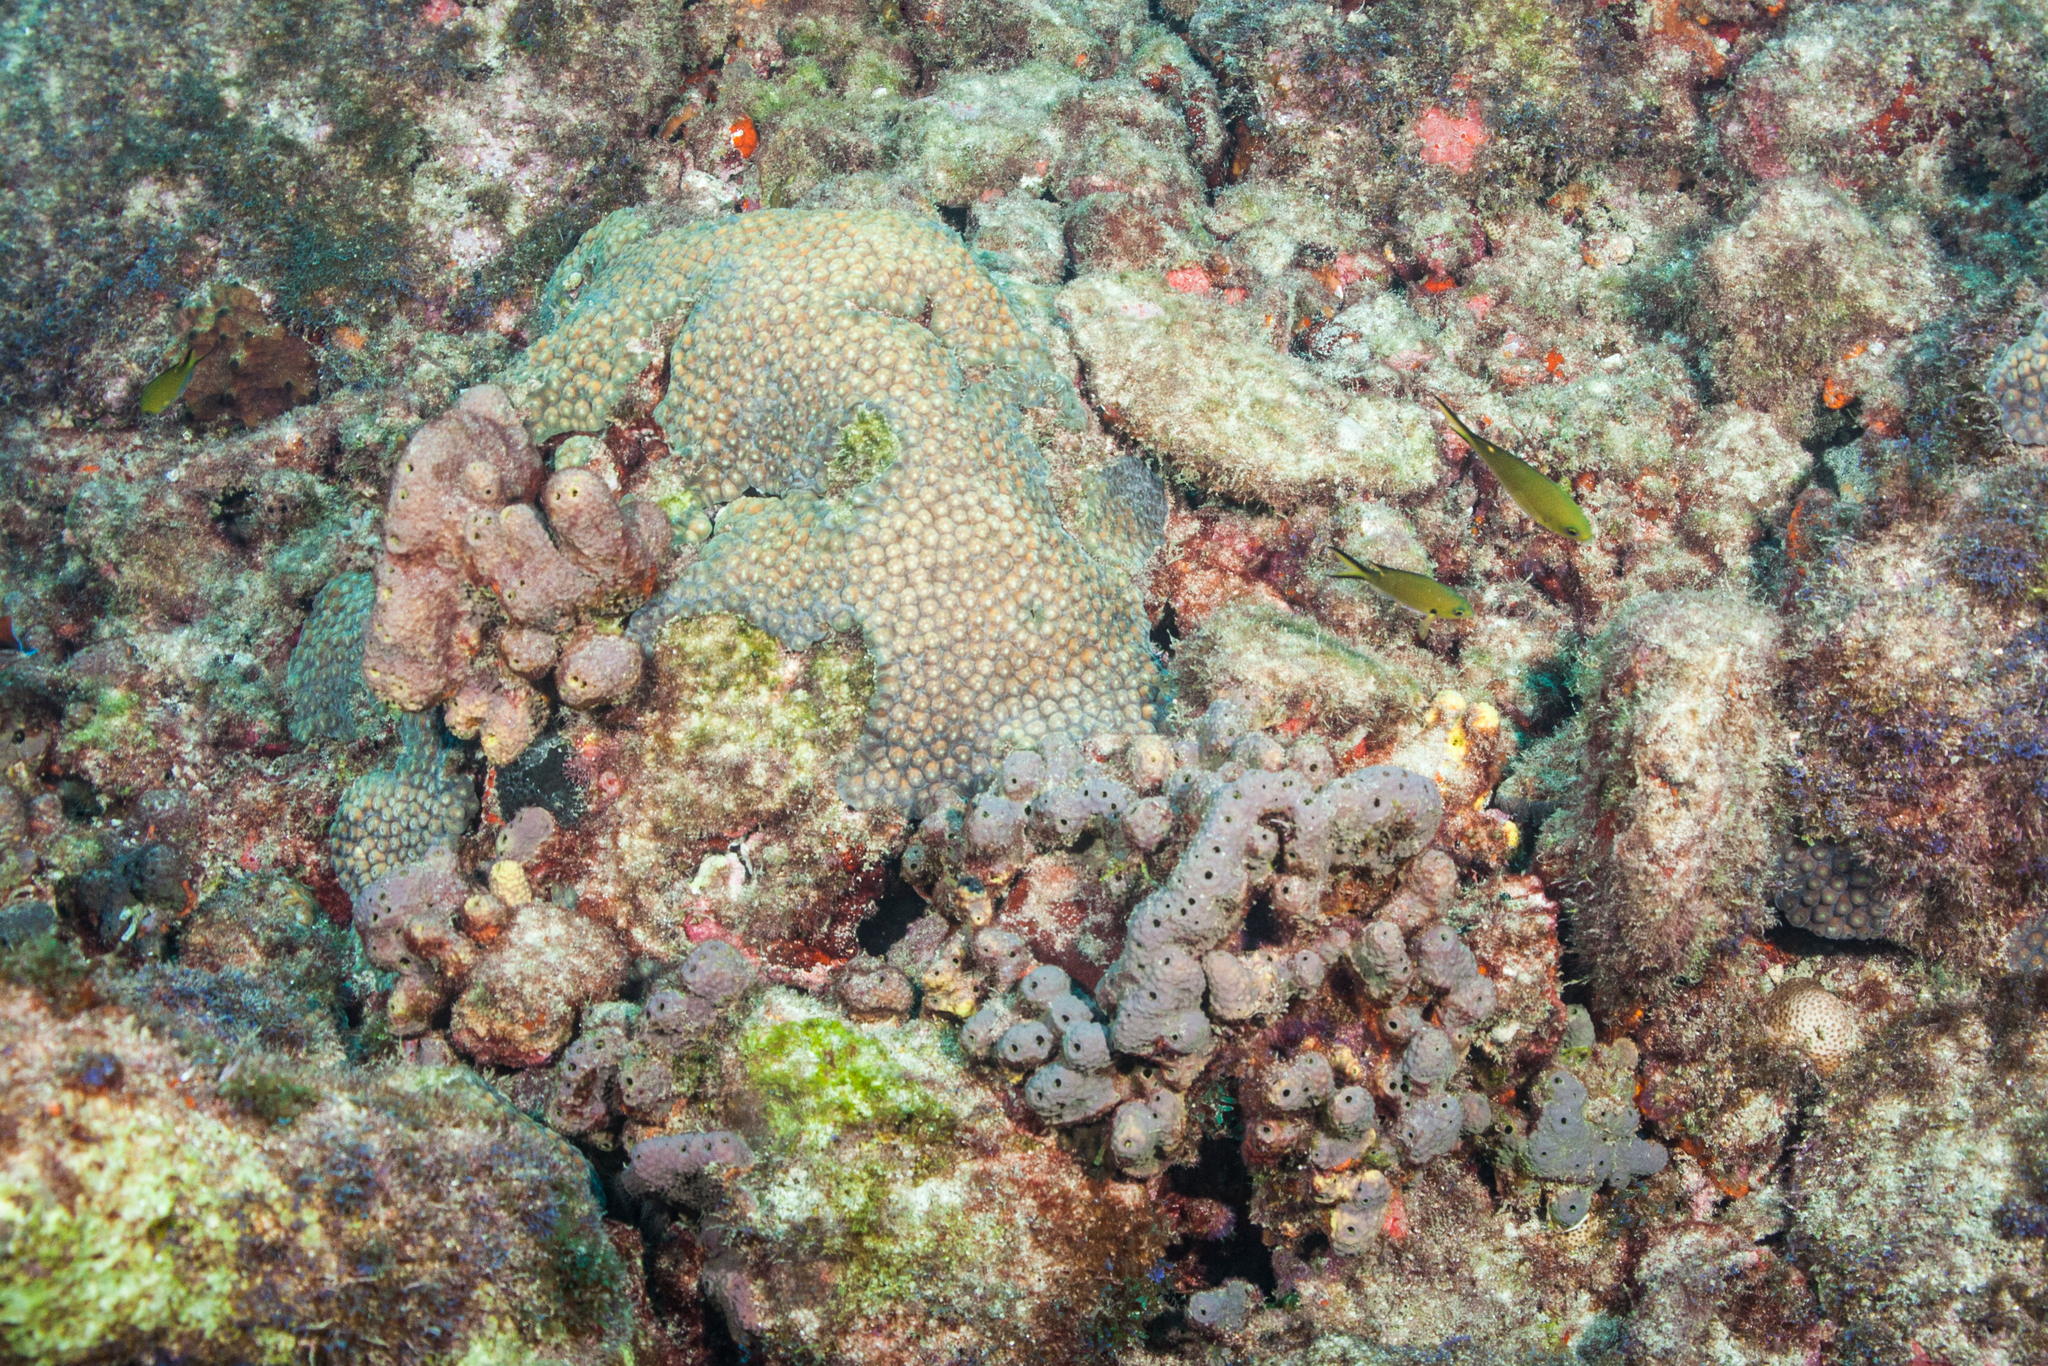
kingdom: Animalia
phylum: Cnidaria
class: Anthozoa
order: Scleractinia
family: Montastraeidae
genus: Montastraea
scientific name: Montastraea cavernosa
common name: Great star coral
